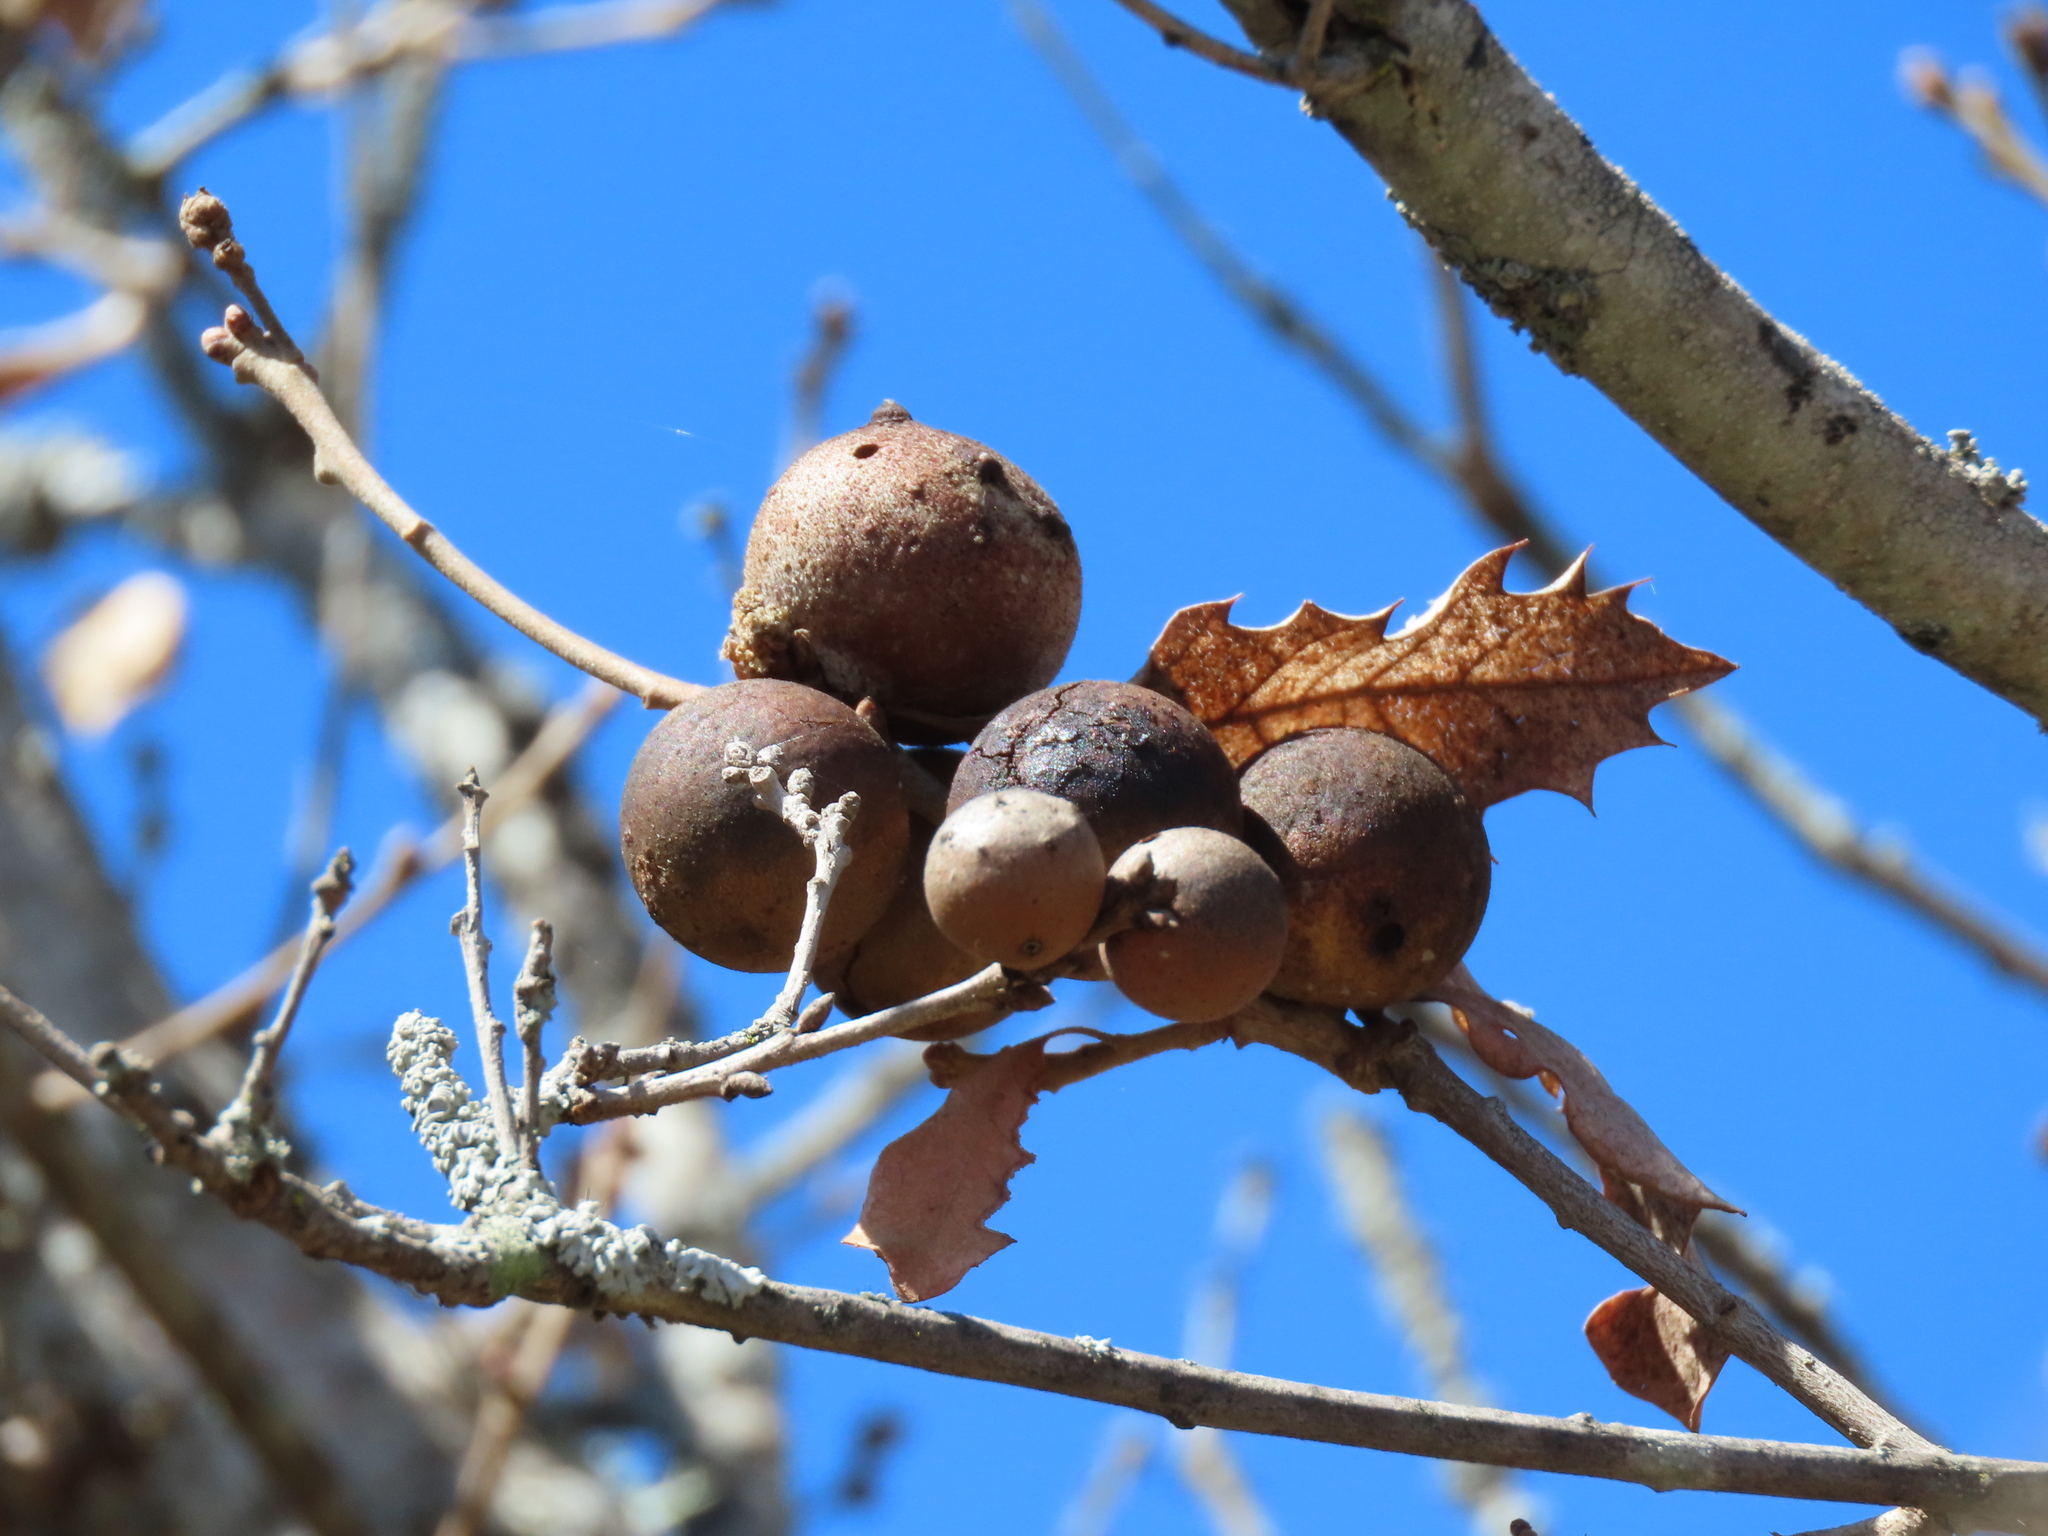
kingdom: Animalia
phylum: Arthropoda
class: Insecta
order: Hymenoptera
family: Cynipidae
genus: Andricus
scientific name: Andricus kollari
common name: Marble gall
